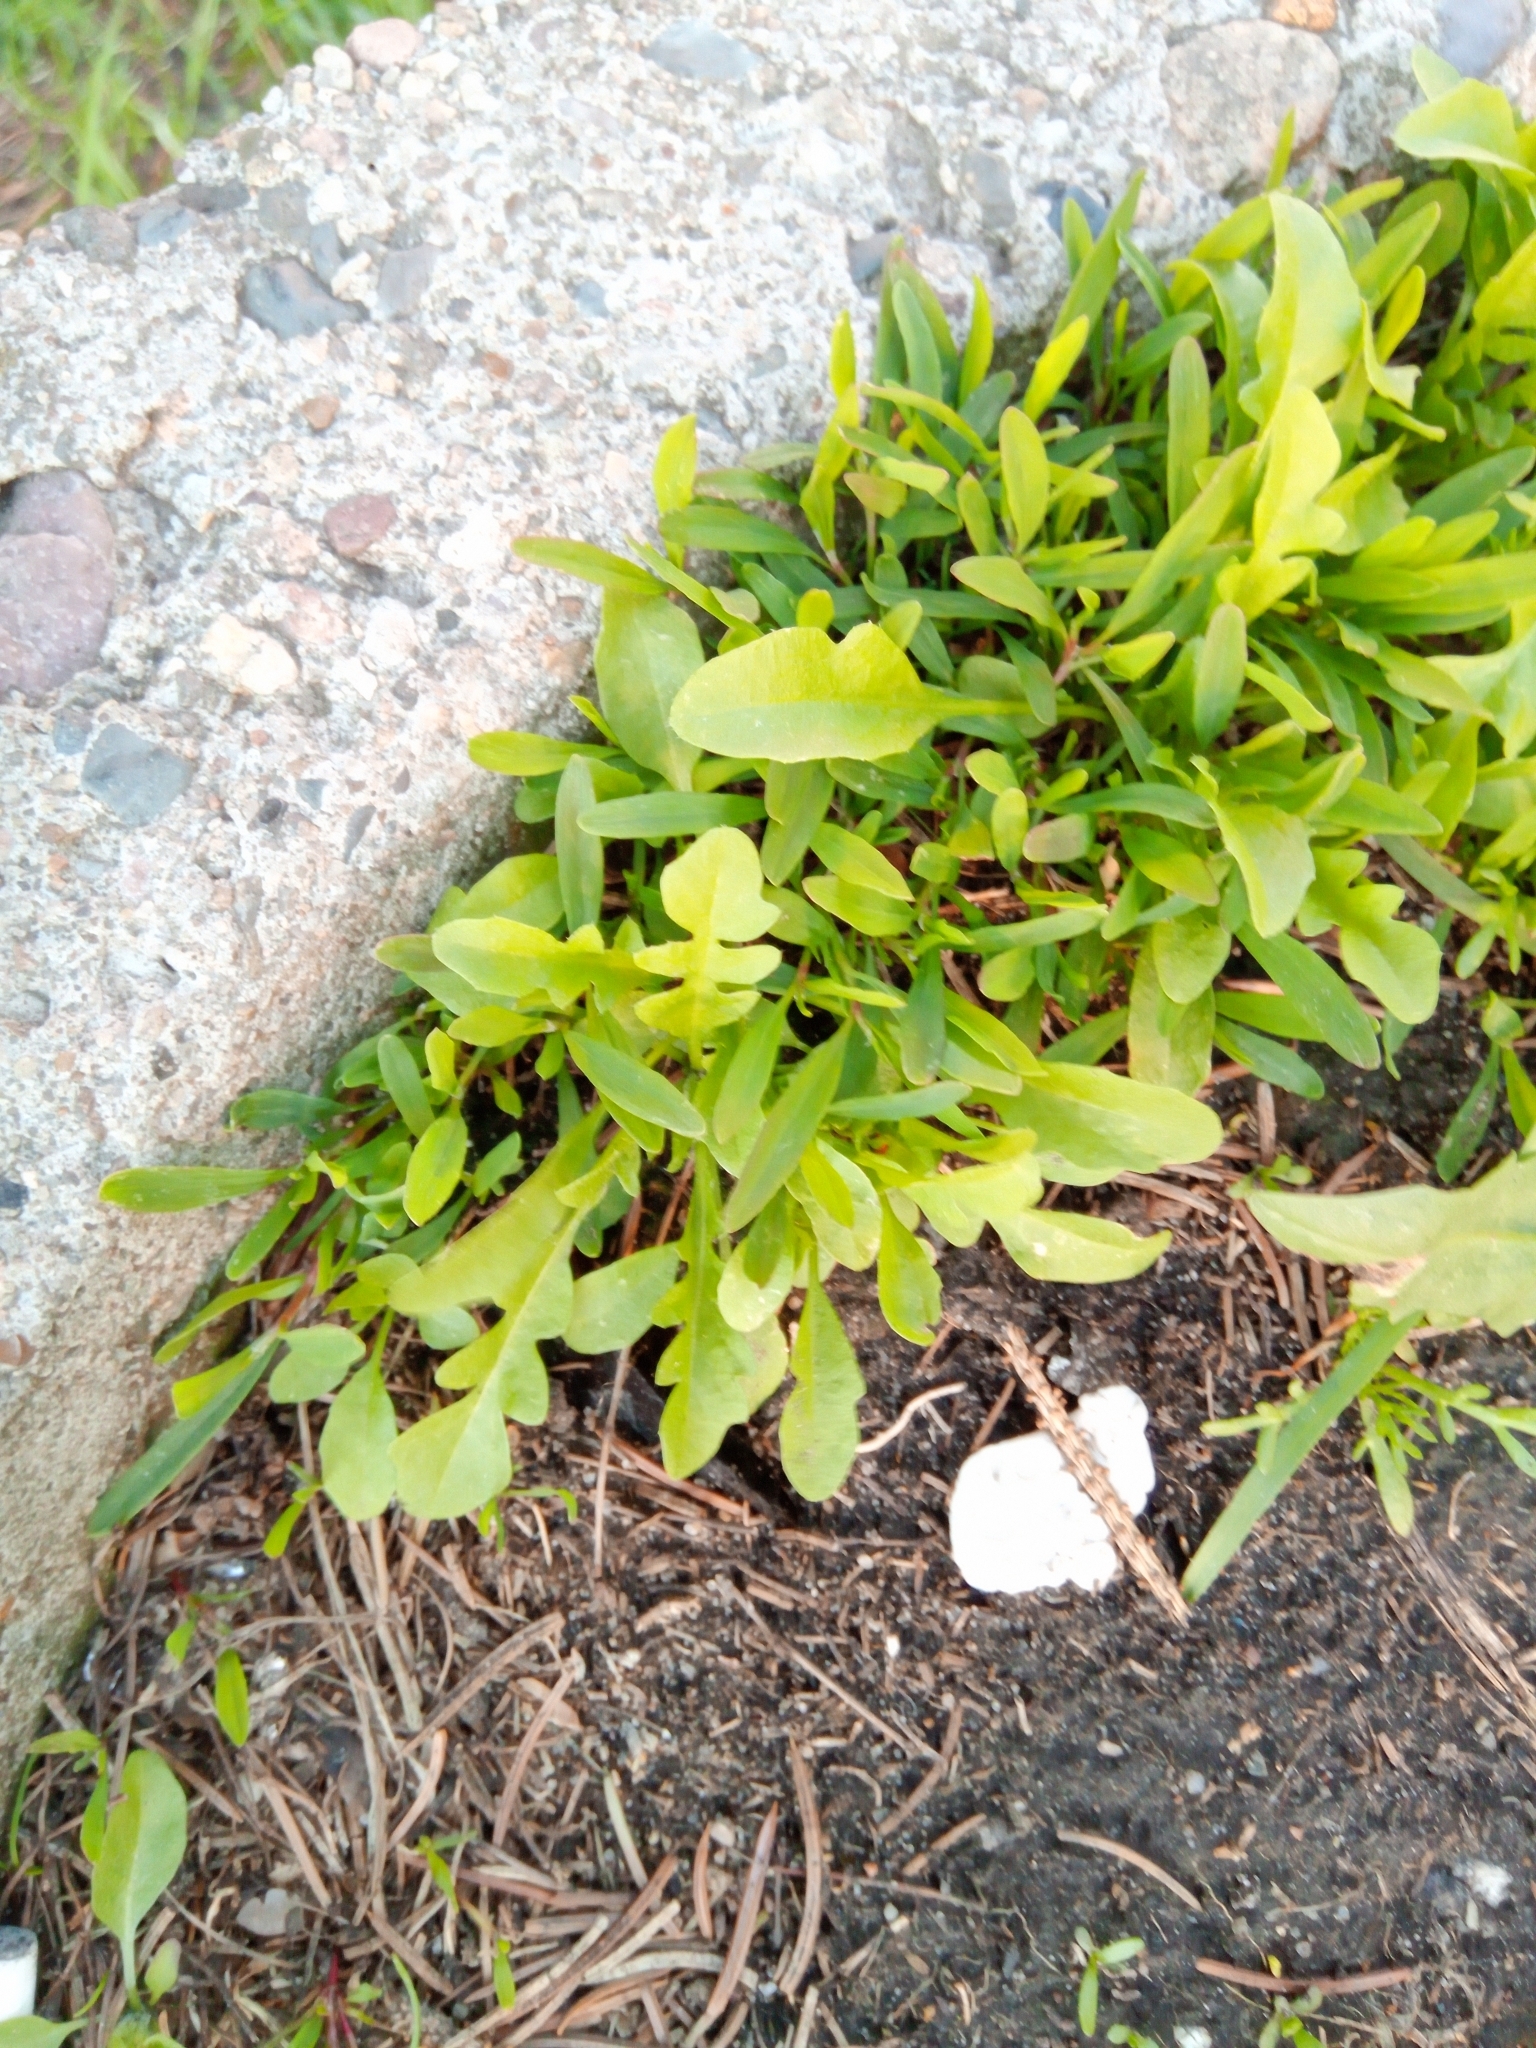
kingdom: Plantae
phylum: Tracheophyta
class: Magnoliopsida
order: Brassicales
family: Brassicaceae
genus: Capsella
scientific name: Capsella bursa-pastoris
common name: Shepherd's purse
